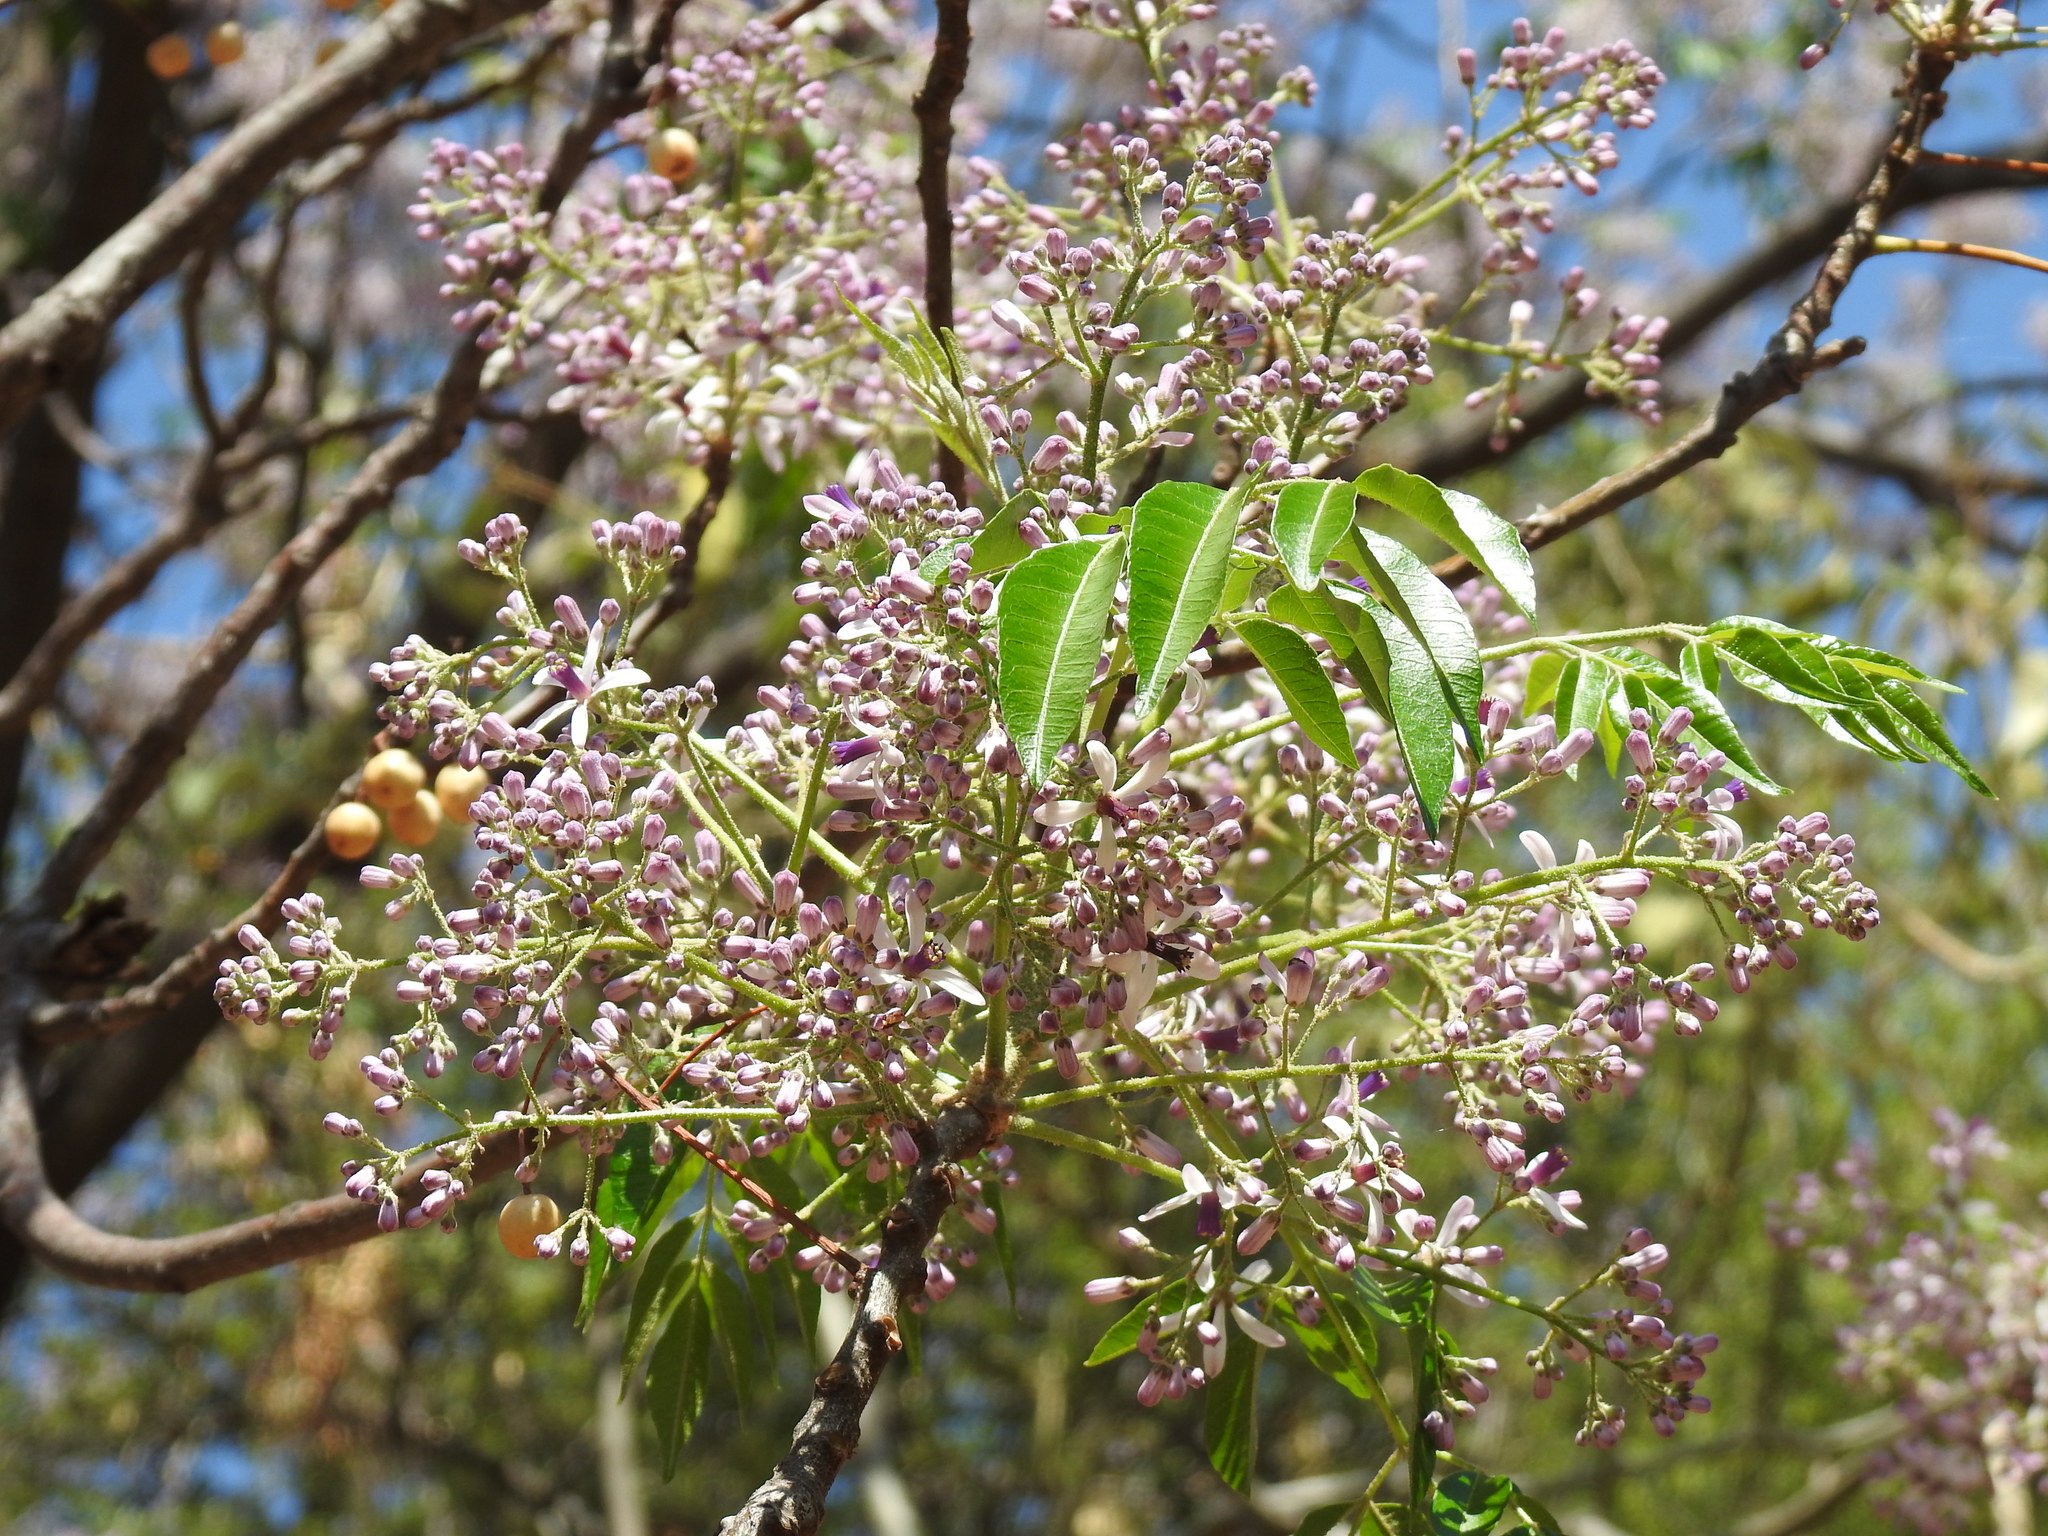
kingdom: Plantae
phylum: Tracheophyta
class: Magnoliopsida
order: Sapindales
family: Meliaceae
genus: Melia
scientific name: Melia azedarach
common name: Chinaberrytree
